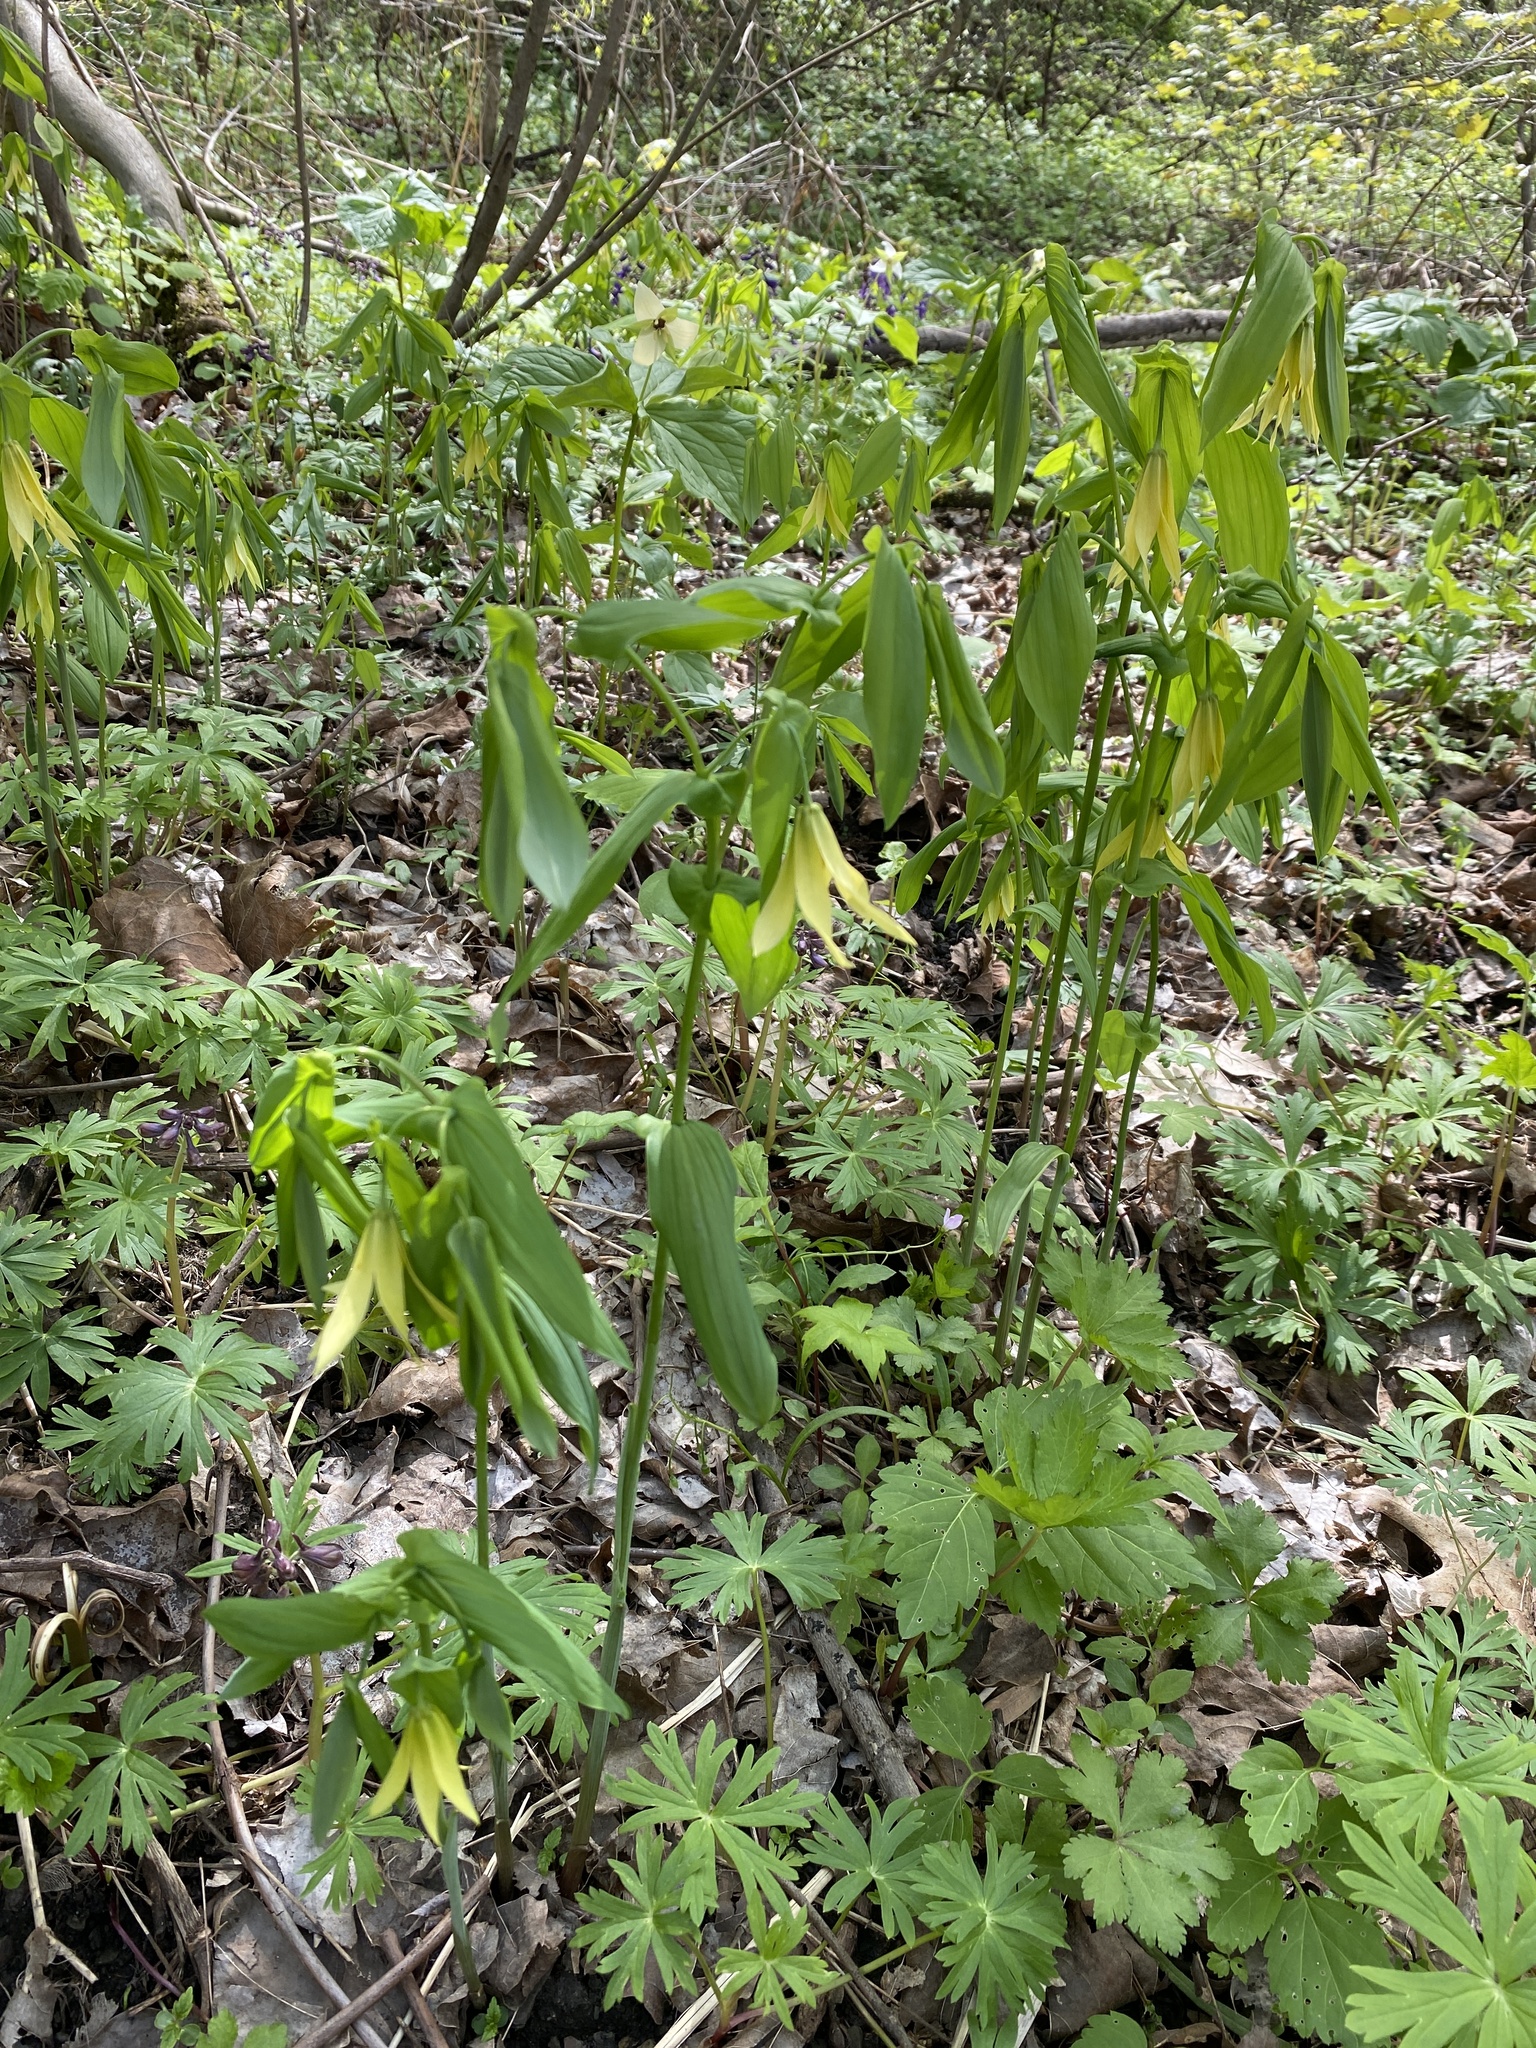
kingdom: Plantae
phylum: Tracheophyta
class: Liliopsida
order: Liliales
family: Colchicaceae
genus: Uvularia
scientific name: Uvularia grandiflora
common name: Bellwort
